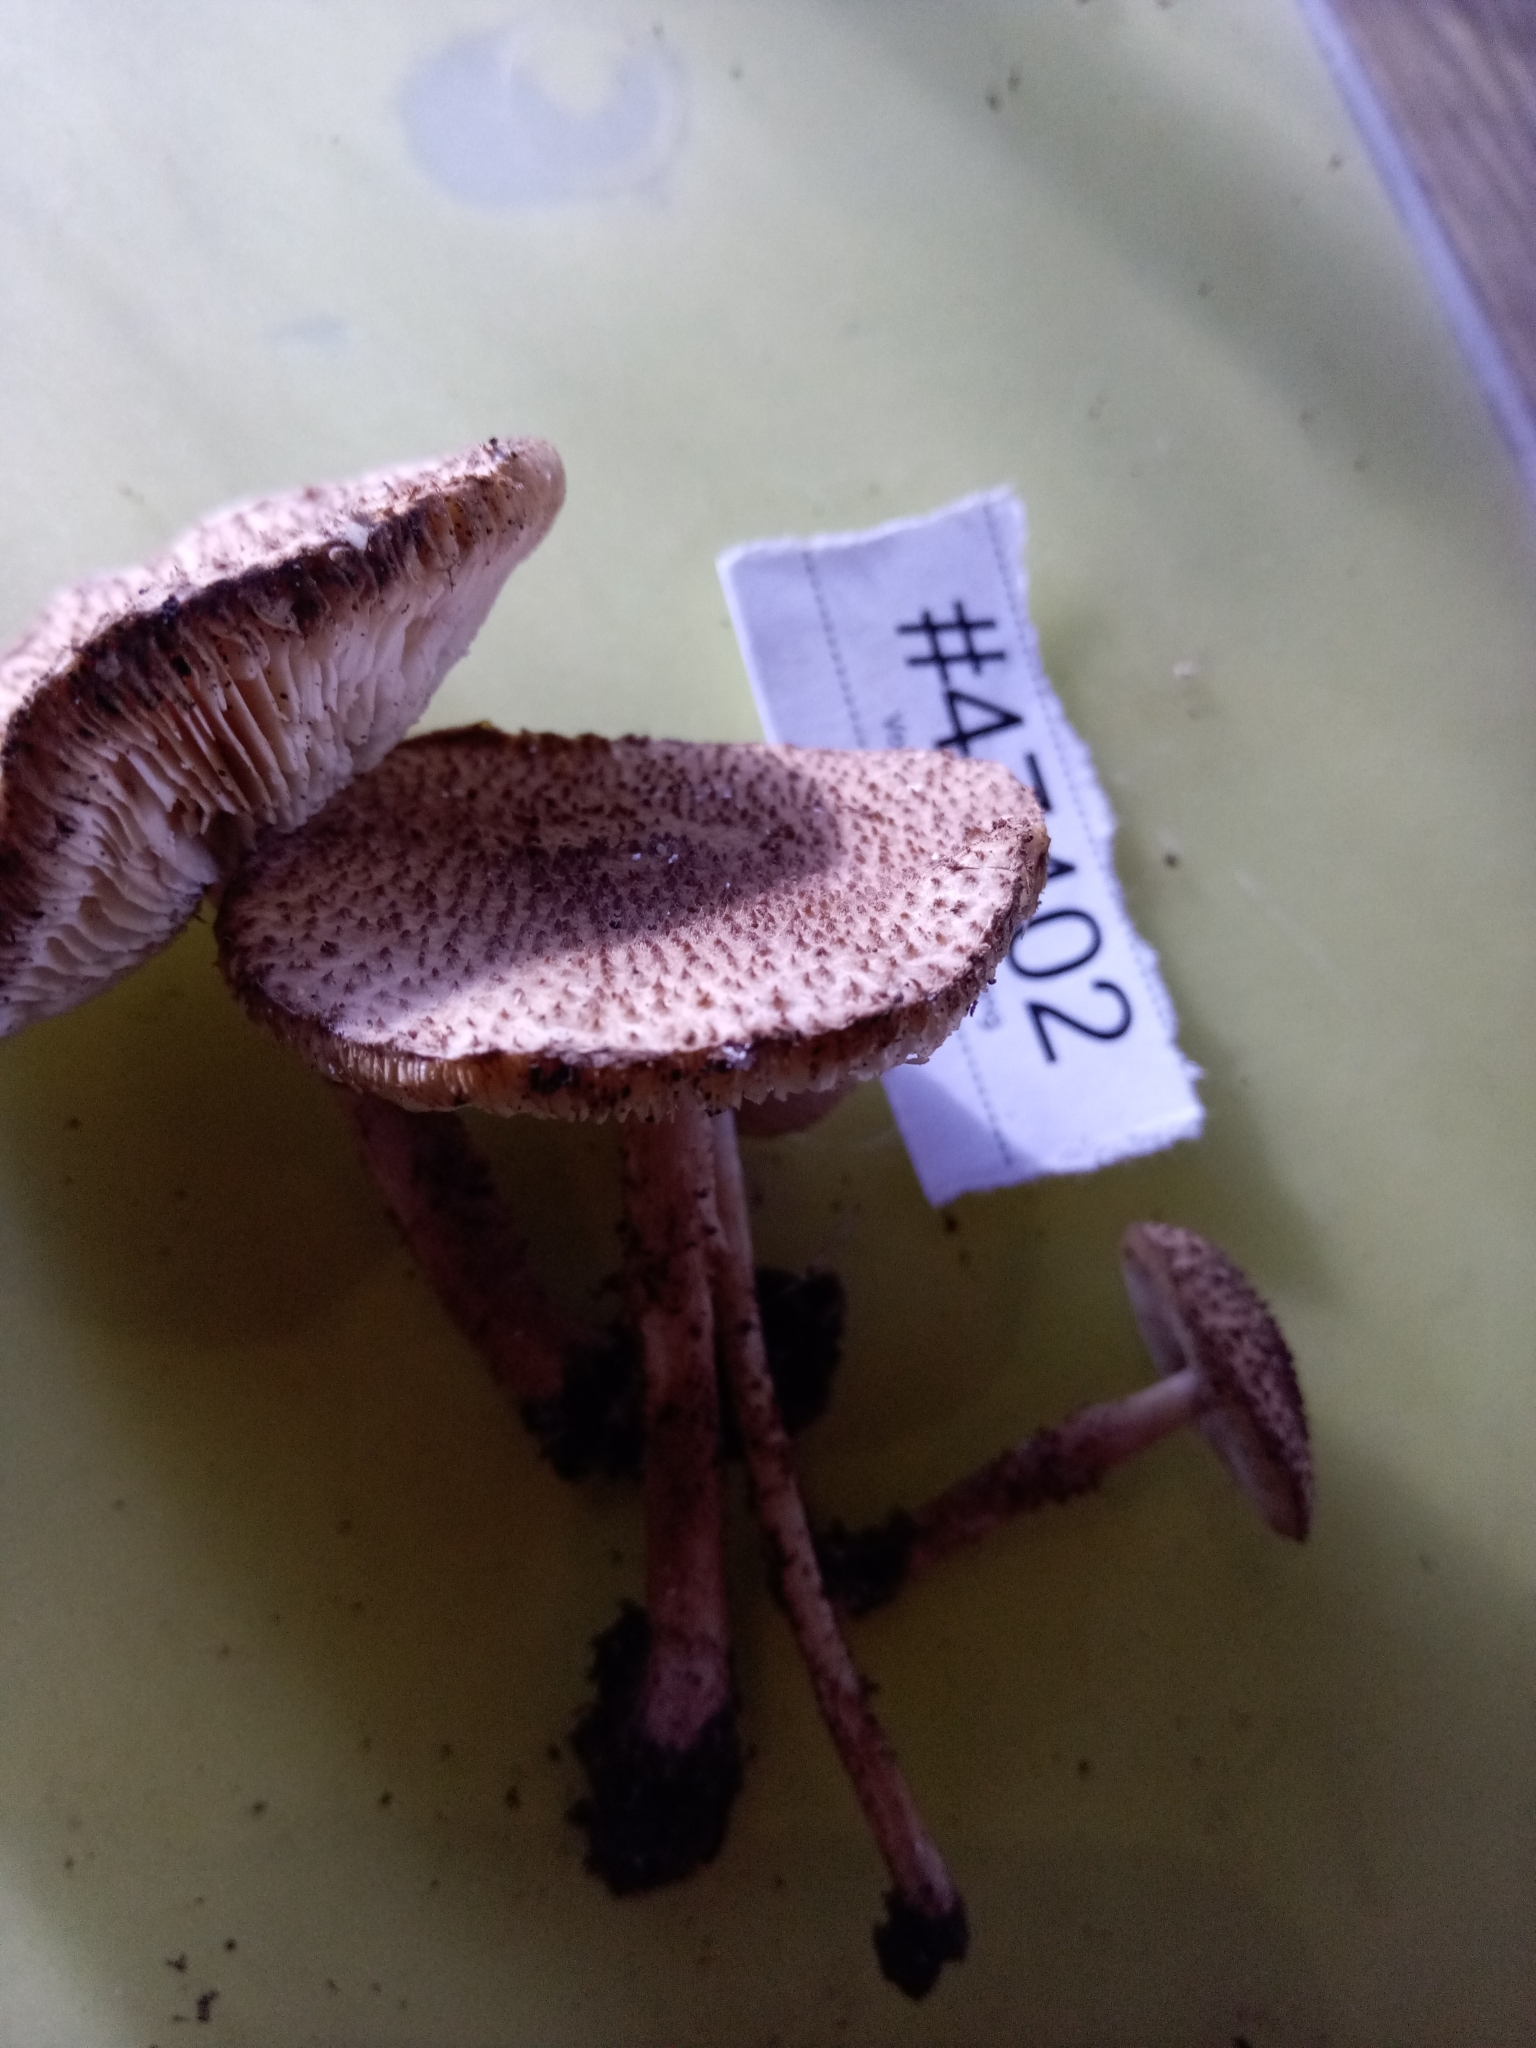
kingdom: Fungi
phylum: Basidiomycota
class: Agaricomycetes
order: Agaricales
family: Agaricaceae
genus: Echinoderma
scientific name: Echinoderma jacobi
